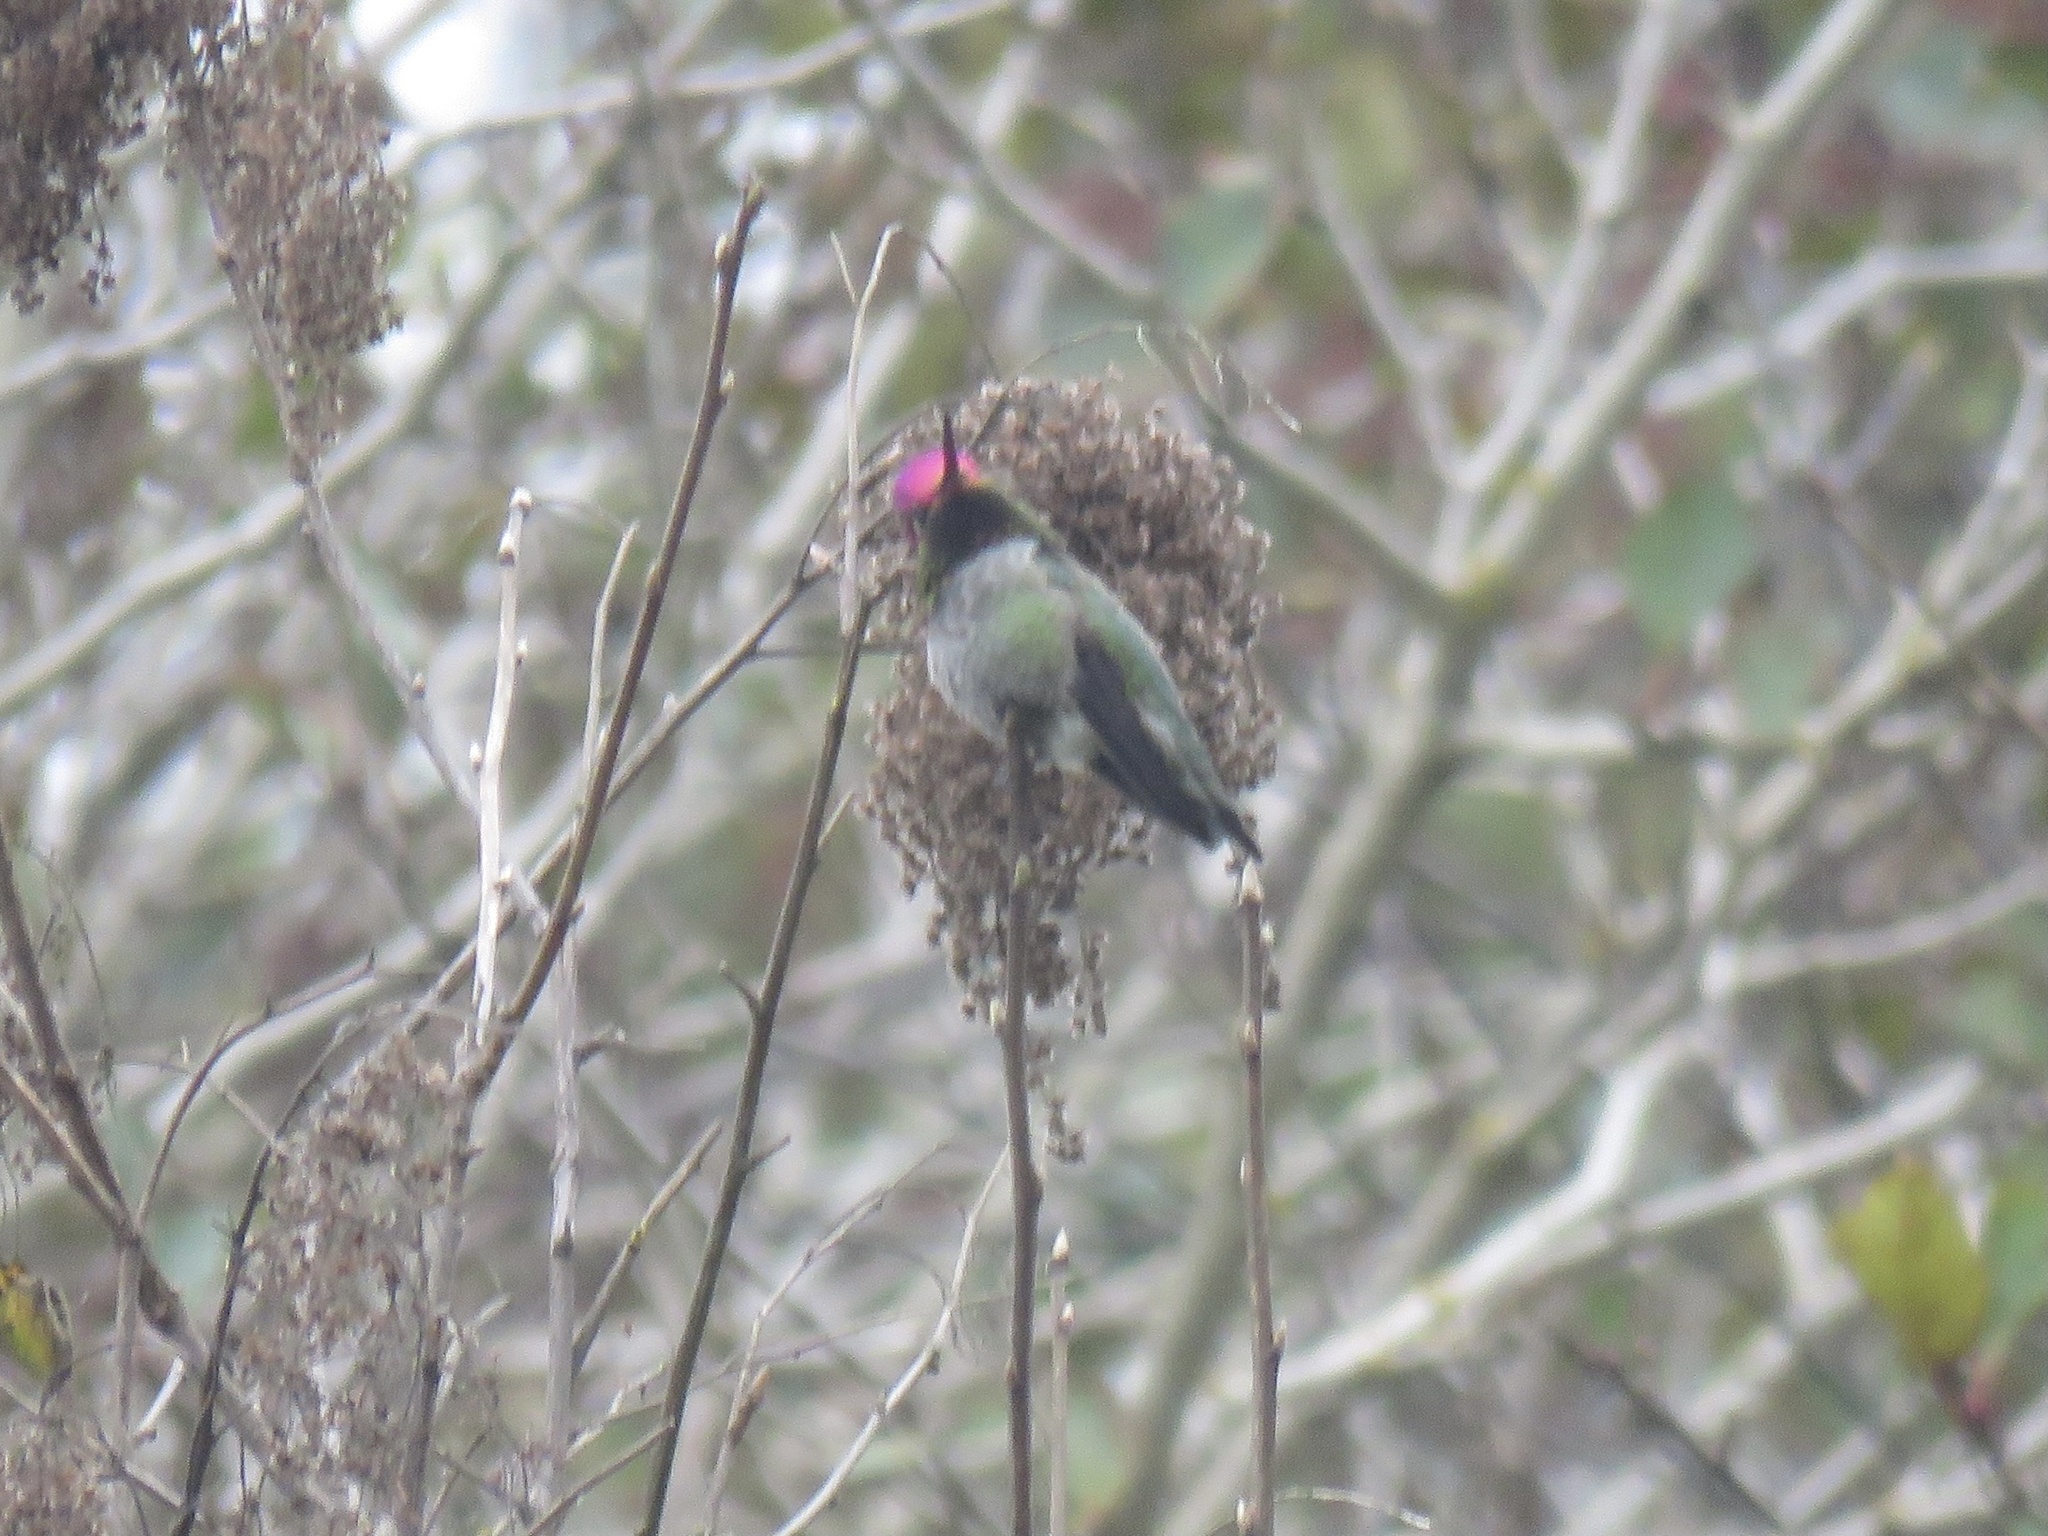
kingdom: Animalia
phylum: Chordata
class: Aves
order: Apodiformes
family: Trochilidae
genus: Calypte
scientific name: Calypte anna
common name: Anna's hummingbird
